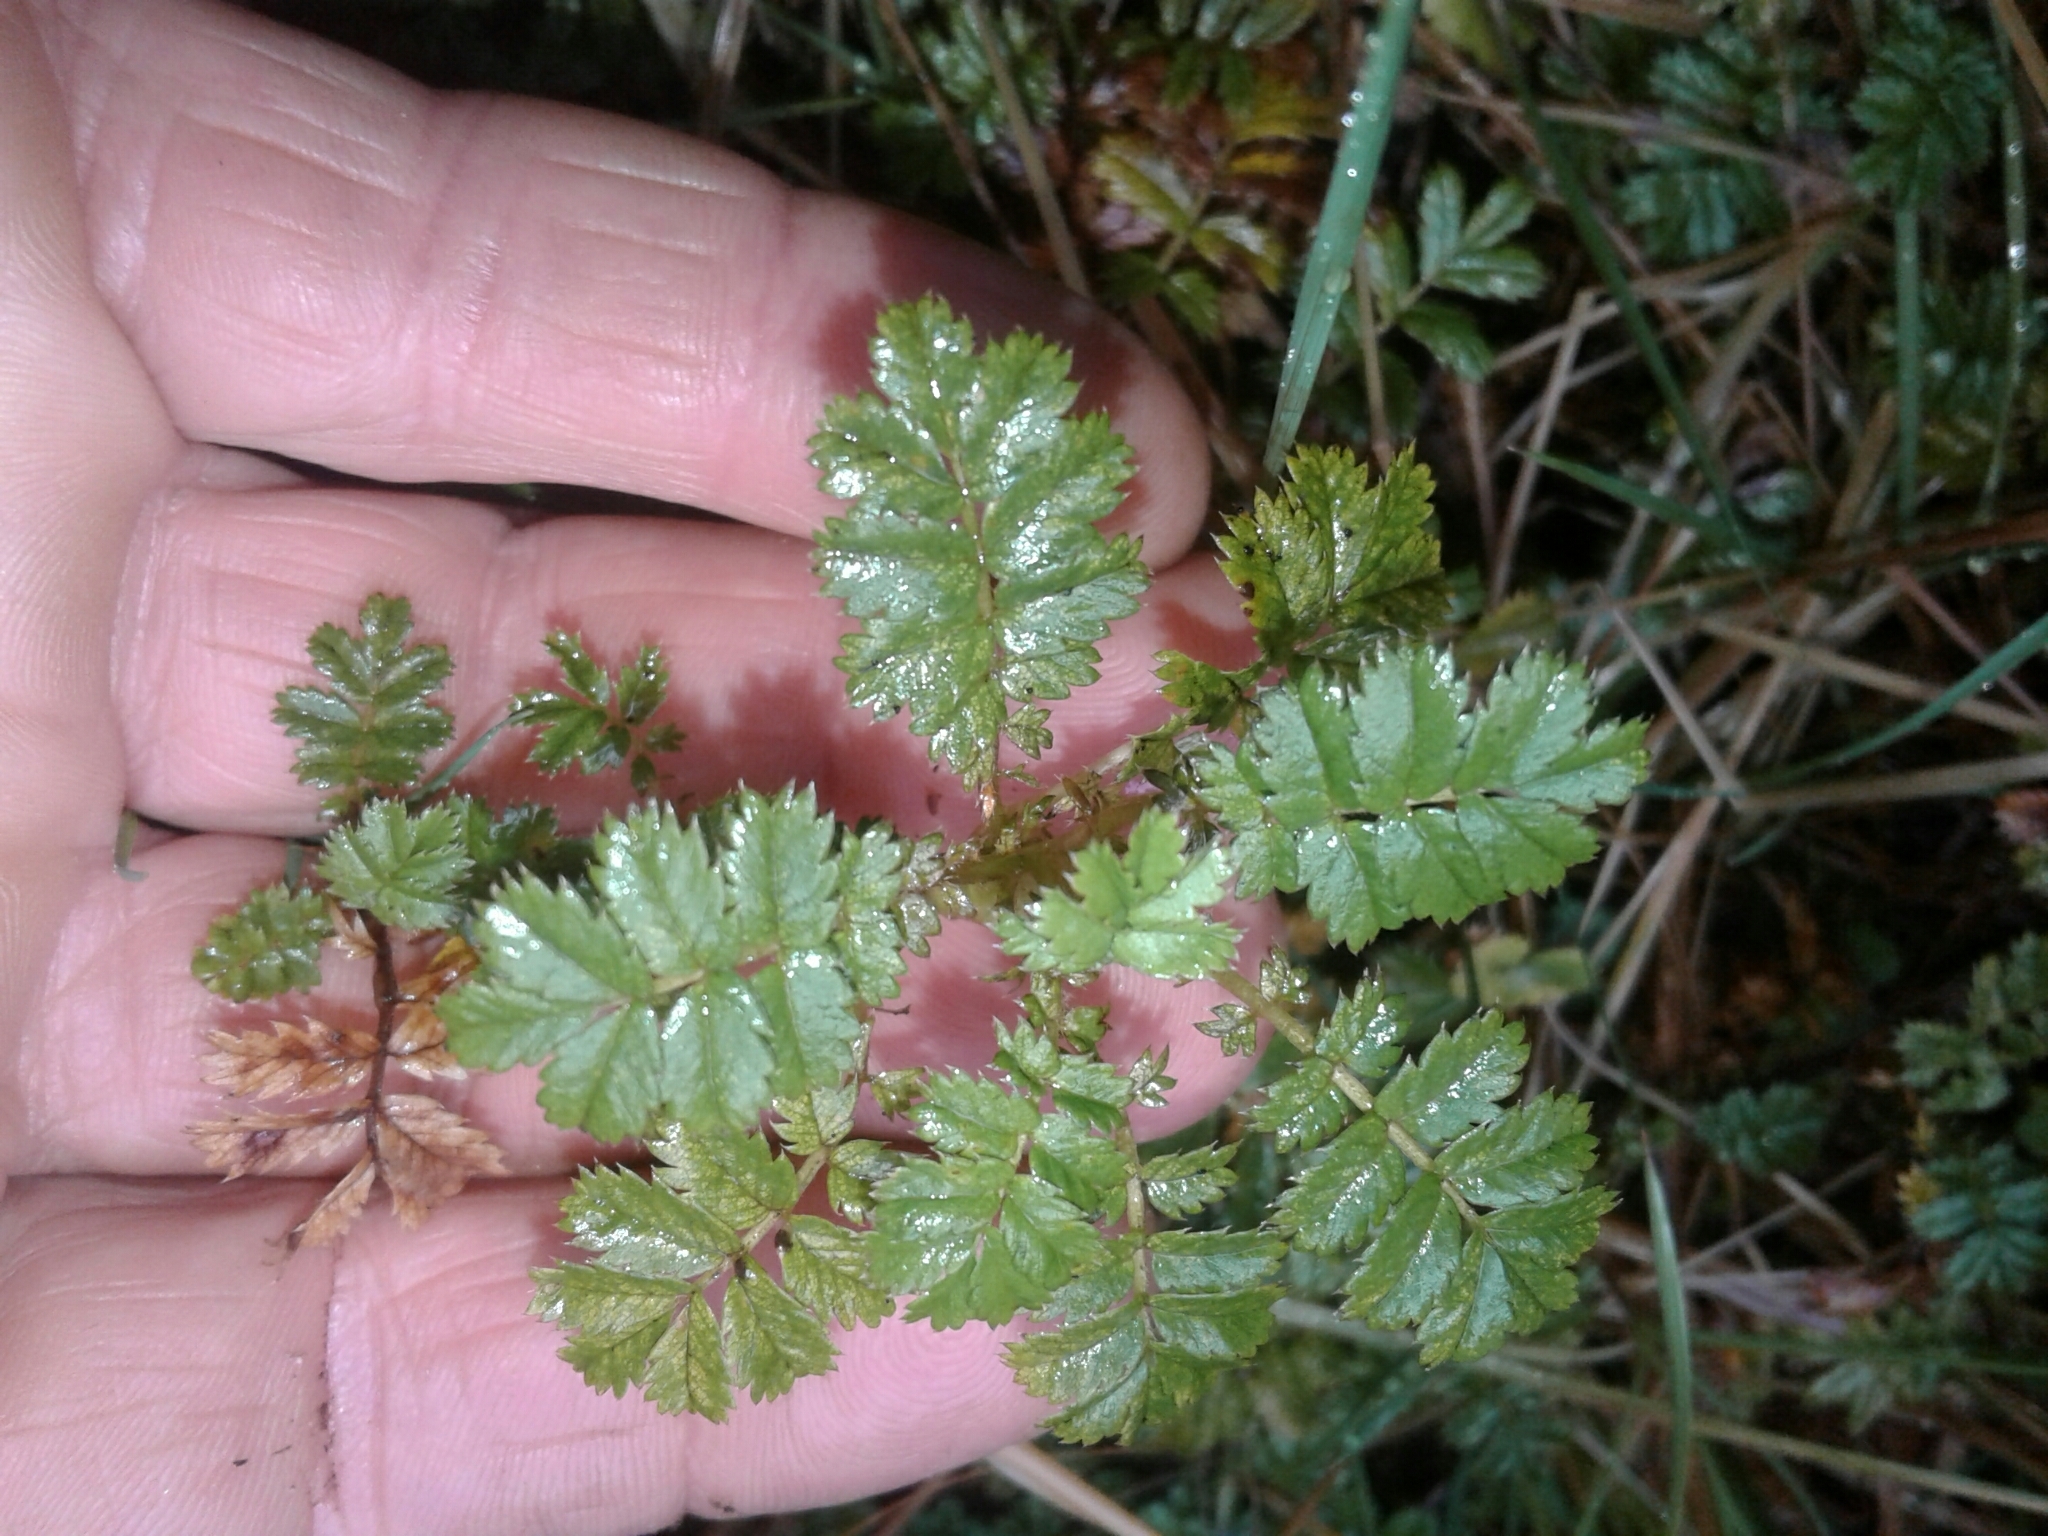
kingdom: Plantae
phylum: Tracheophyta
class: Magnoliopsida
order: Rosales
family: Rosaceae
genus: Acaena
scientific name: Acaena anserinifolia
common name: Bronze pirri-pirri-bur
